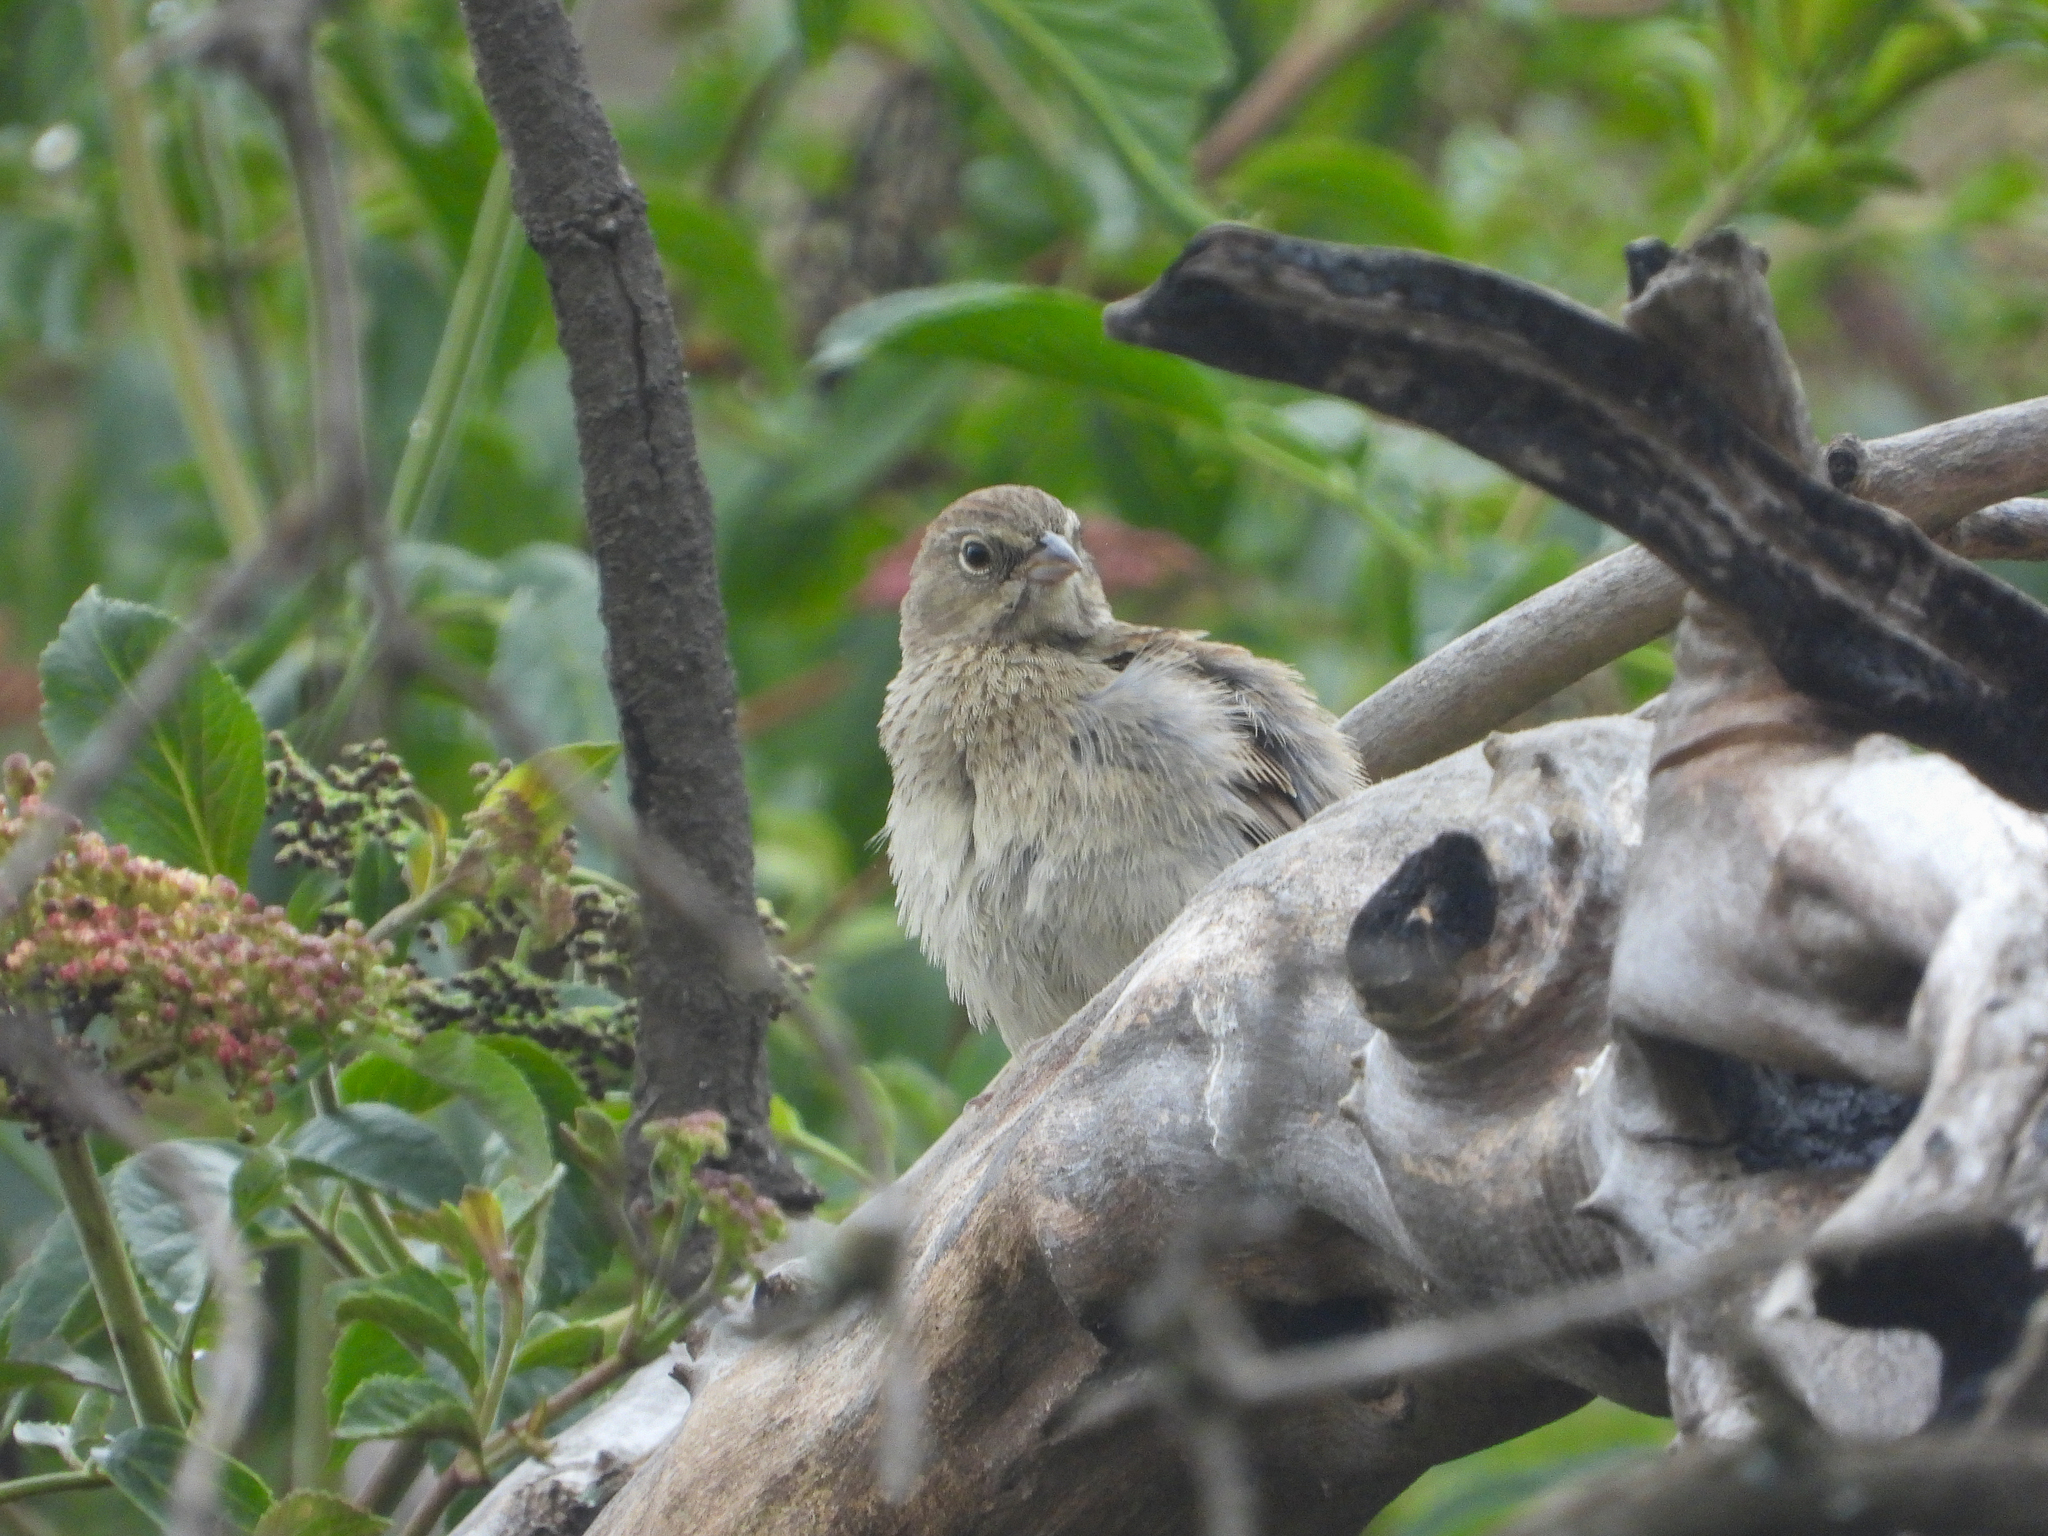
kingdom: Animalia
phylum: Chordata
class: Aves
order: Passeriformes
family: Passerellidae
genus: Aimophila
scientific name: Aimophila ruficeps
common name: Rufous-crowned sparrow
